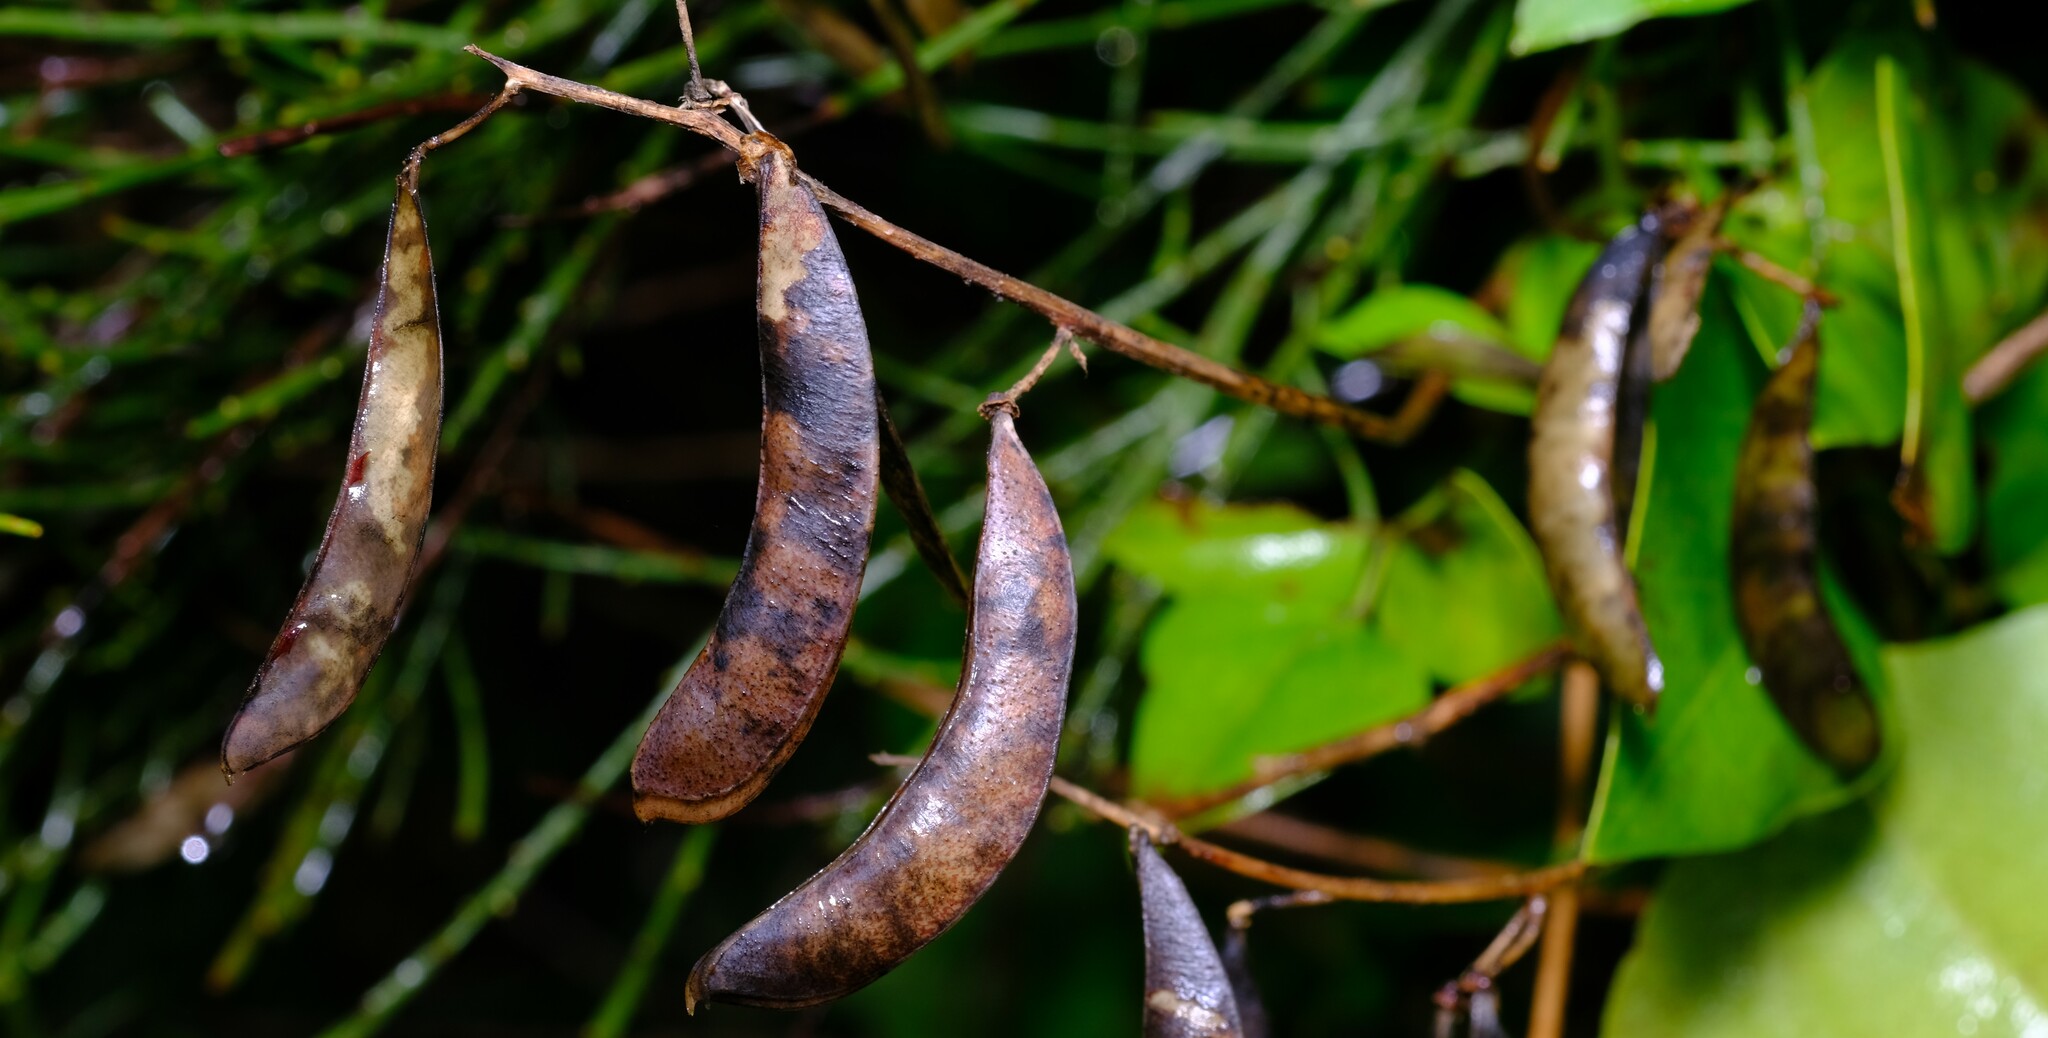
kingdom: Plantae
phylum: Tracheophyta
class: Magnoliopsida
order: Fabales
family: Fabaceae
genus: Dipogon
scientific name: Dipogon lignosus
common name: Okie bean
